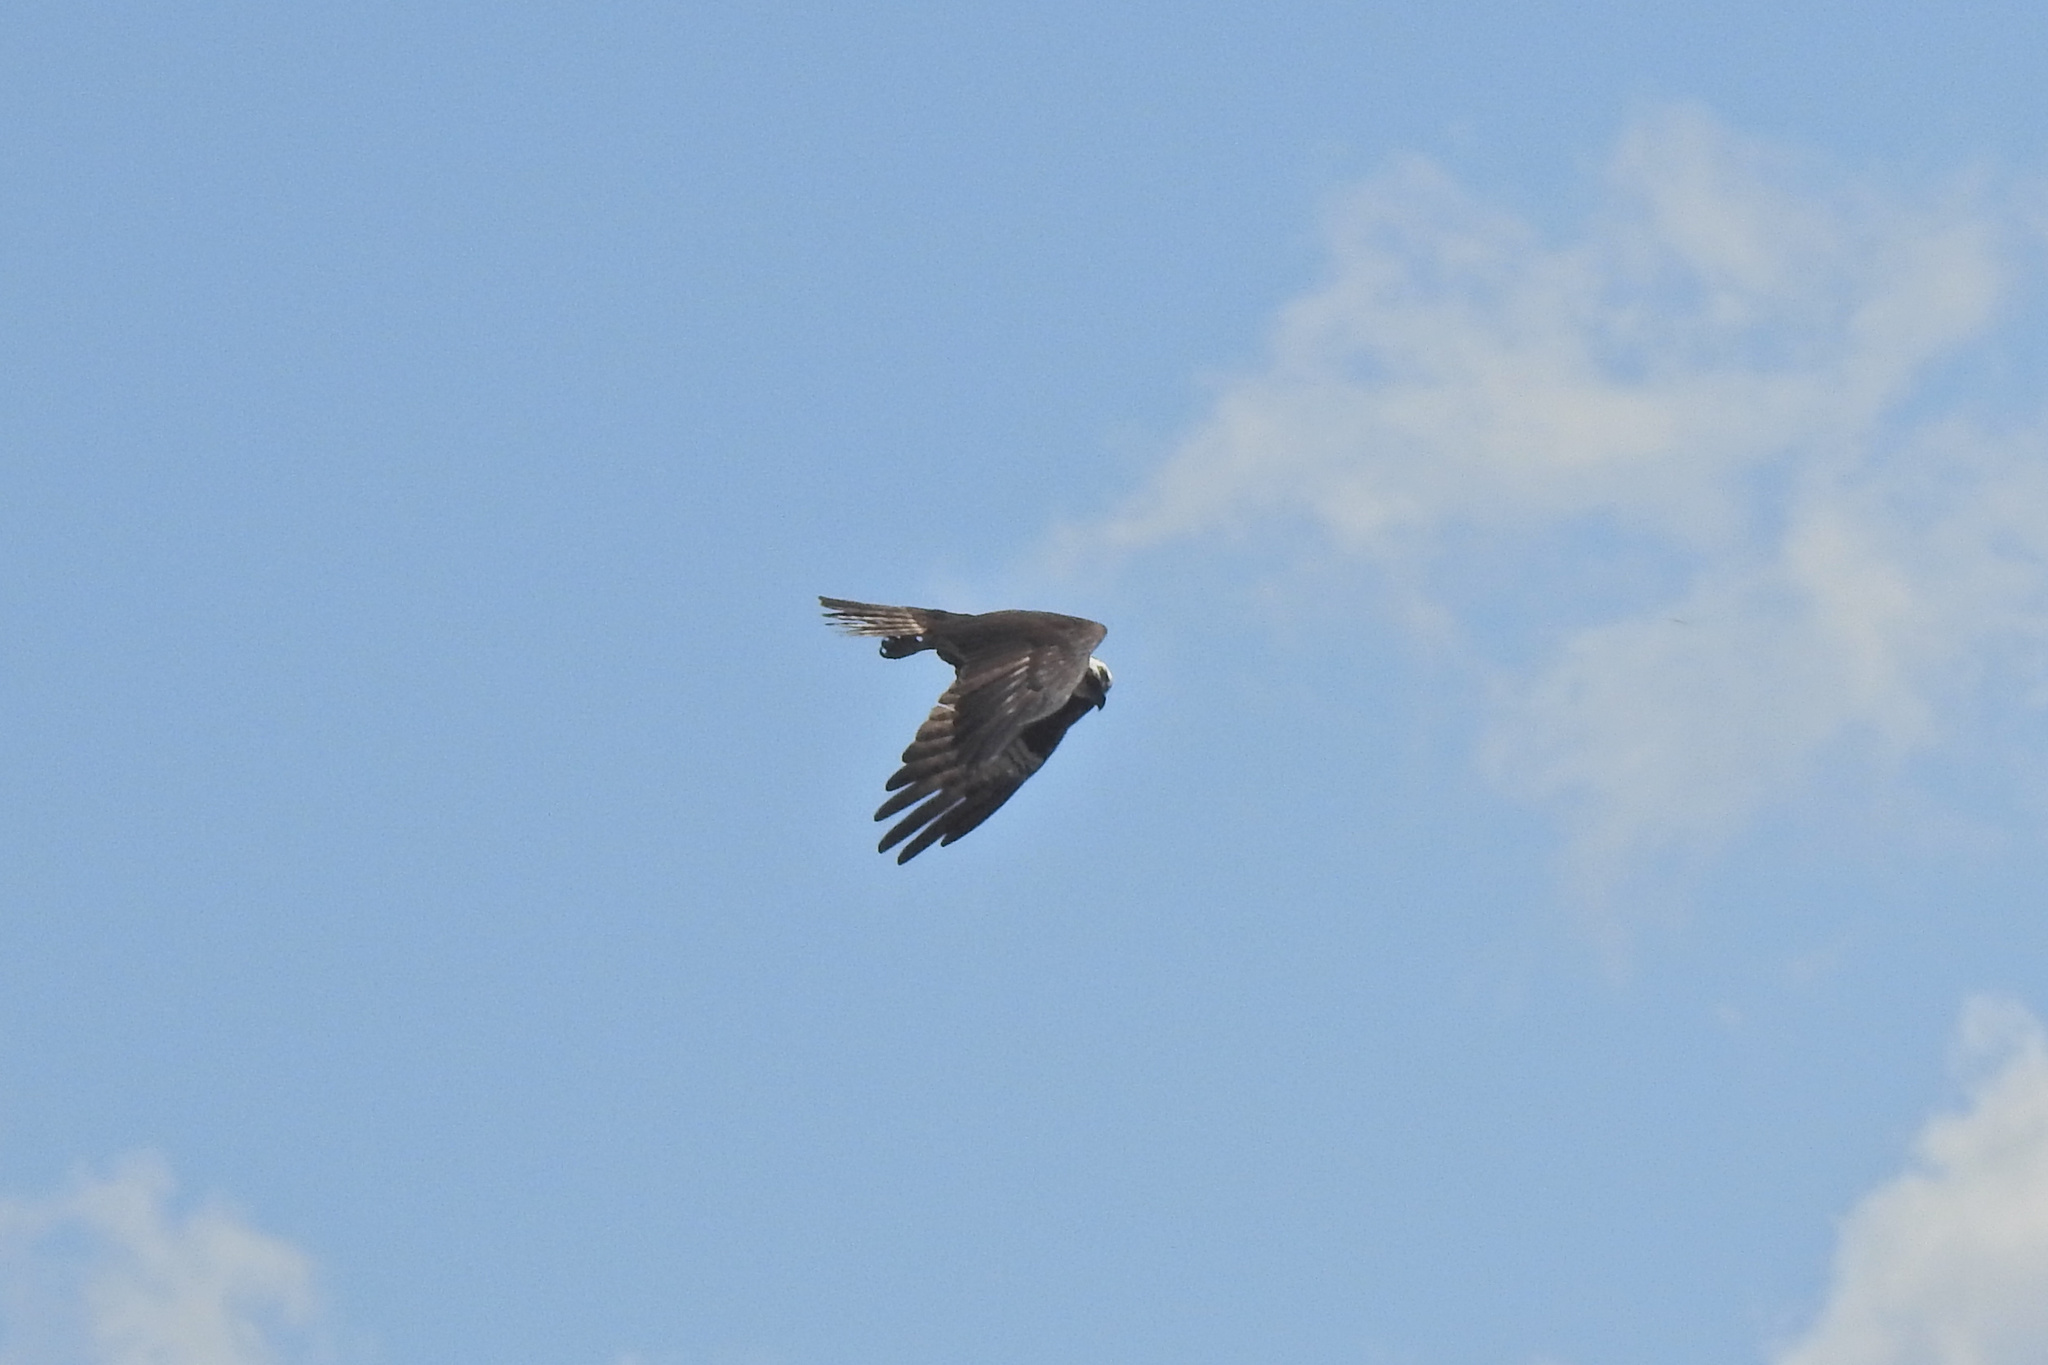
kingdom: Animalia
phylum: Chordata
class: Aves
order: Accipitriformes
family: Pandionidae
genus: Pandion
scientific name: Pandion haliaetus
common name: Osprey
